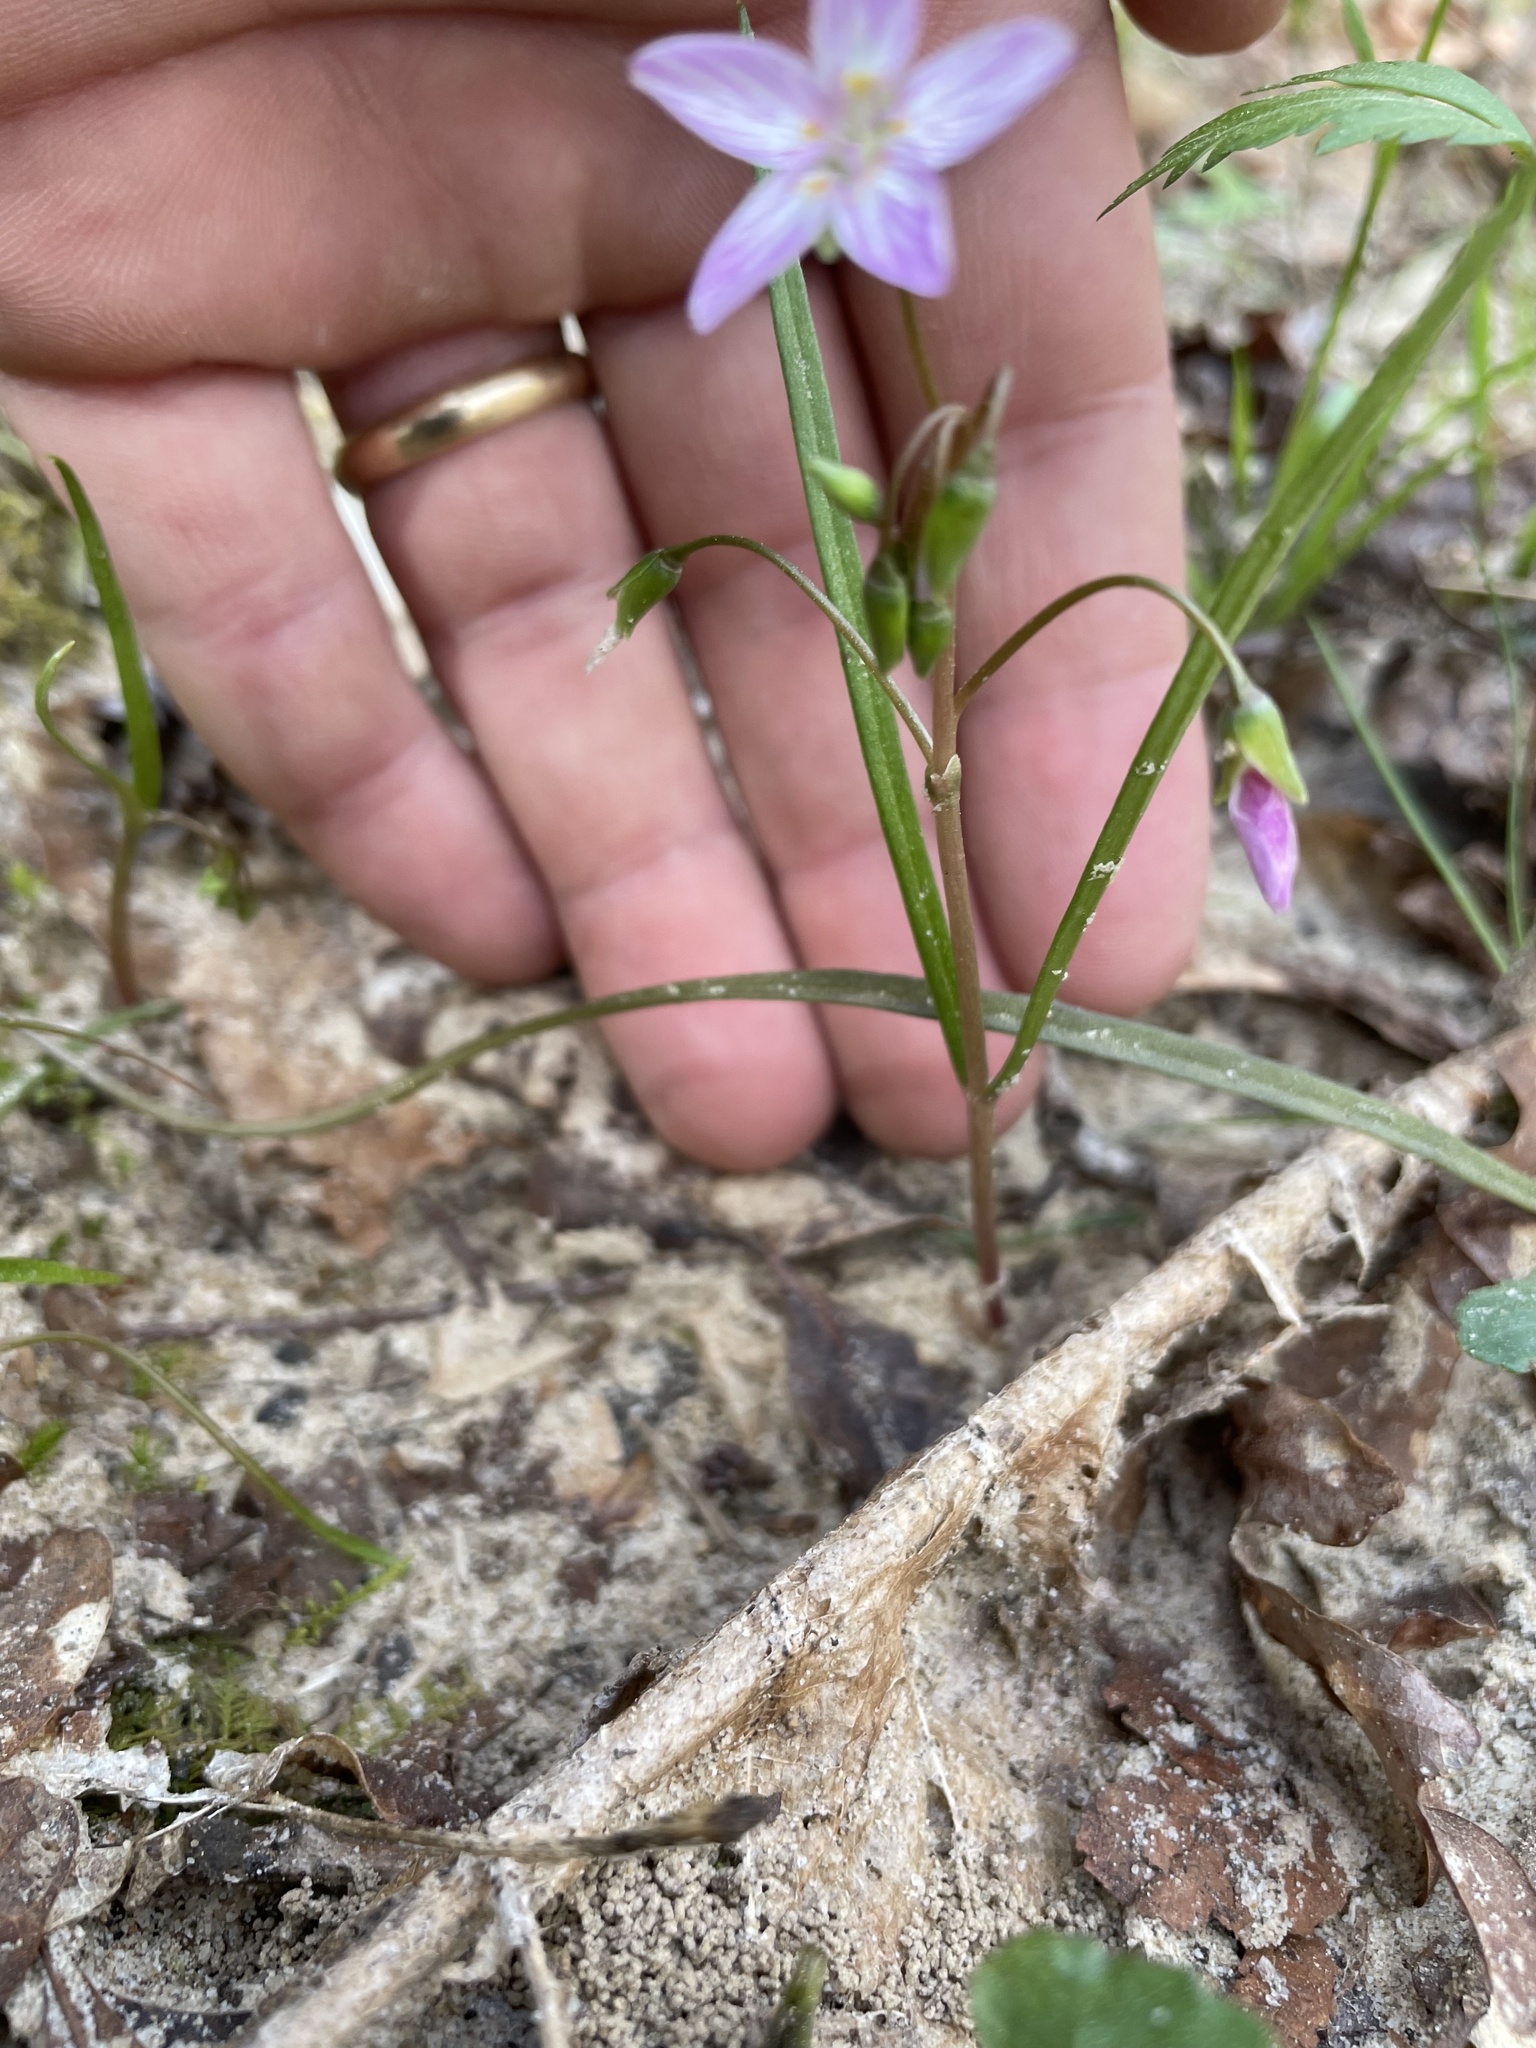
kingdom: Plantae
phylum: Tracheophyta
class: Magnoliopsida
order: Caryophyllales
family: Montiaceae
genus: Claytonia
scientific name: Claytonia virginica
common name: Virginia springbeauty
